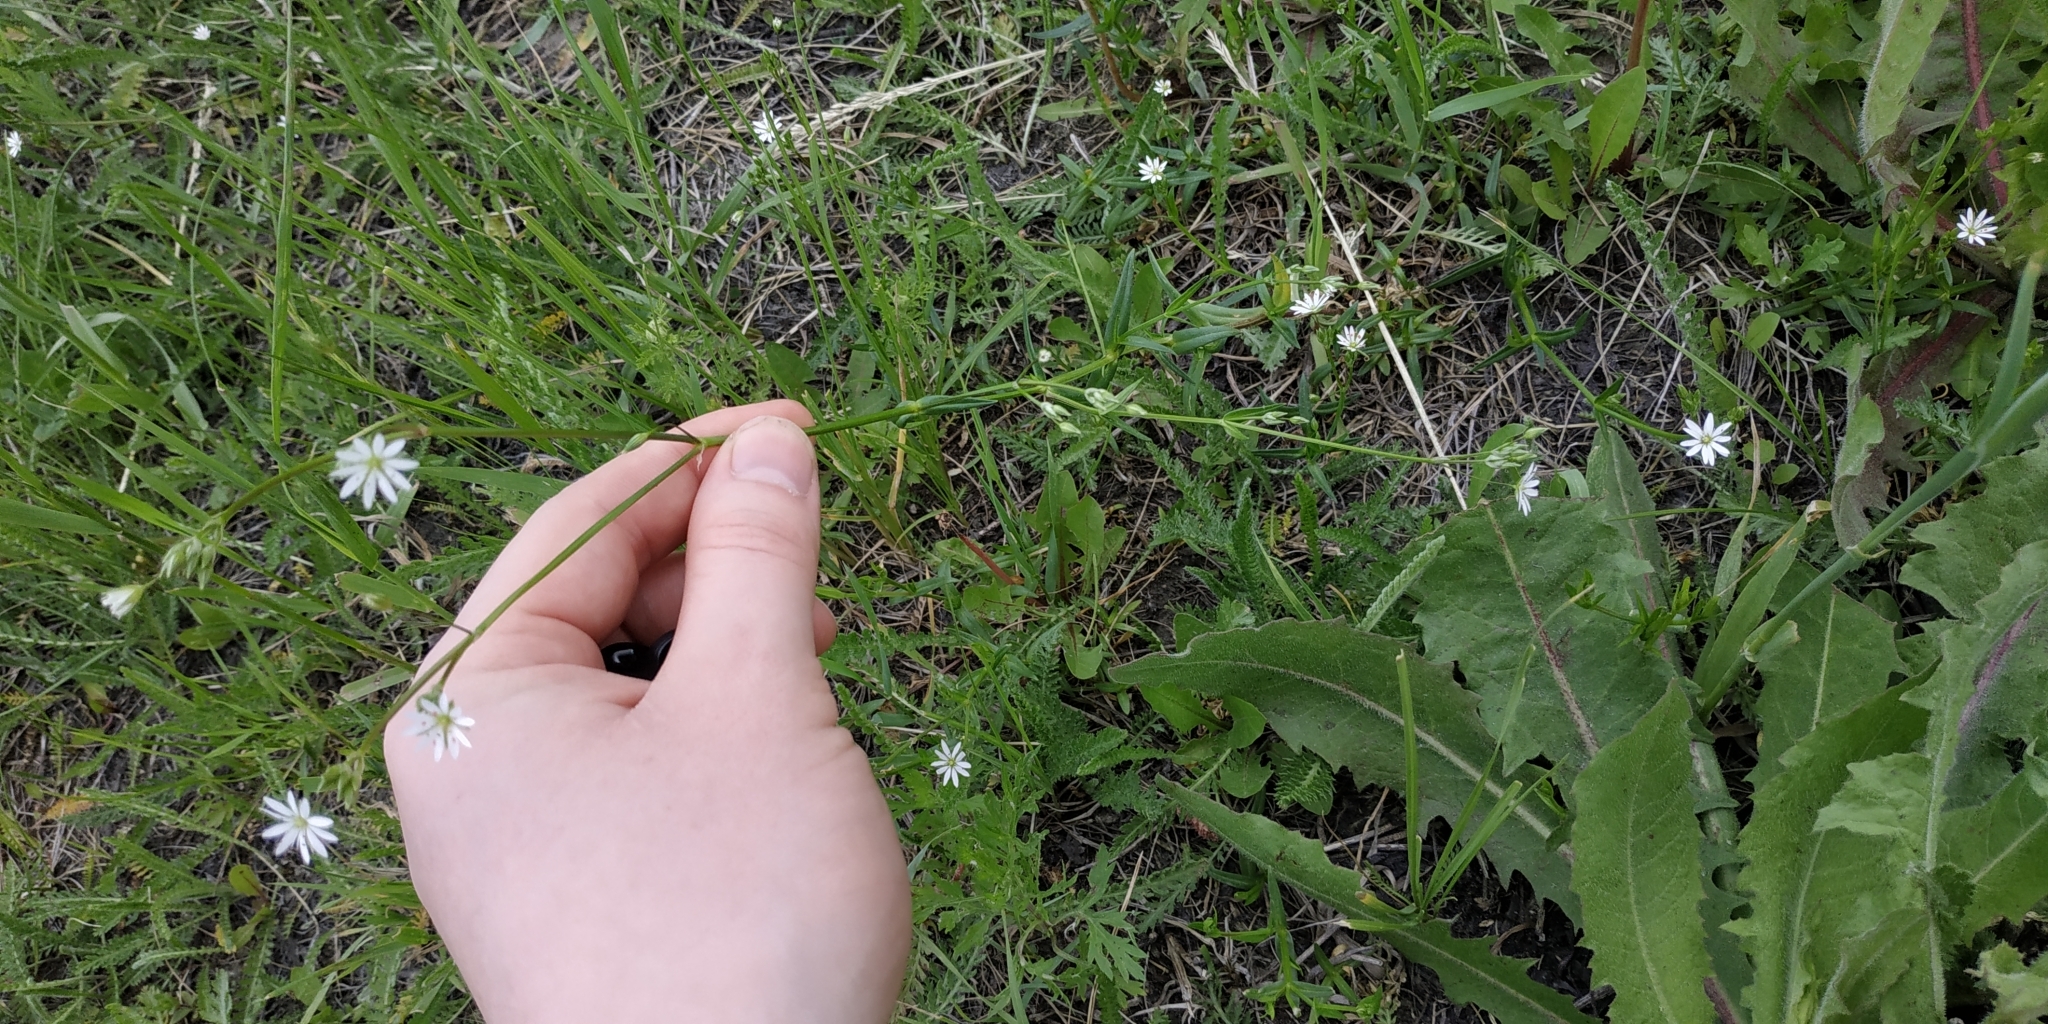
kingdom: Plantae
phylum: Tracheophyta
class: Magnoliopsida
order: Caryophyllales
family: Caryophyllaceae
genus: Stellaria
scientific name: Stellaria graminea
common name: Grass-like starwort
